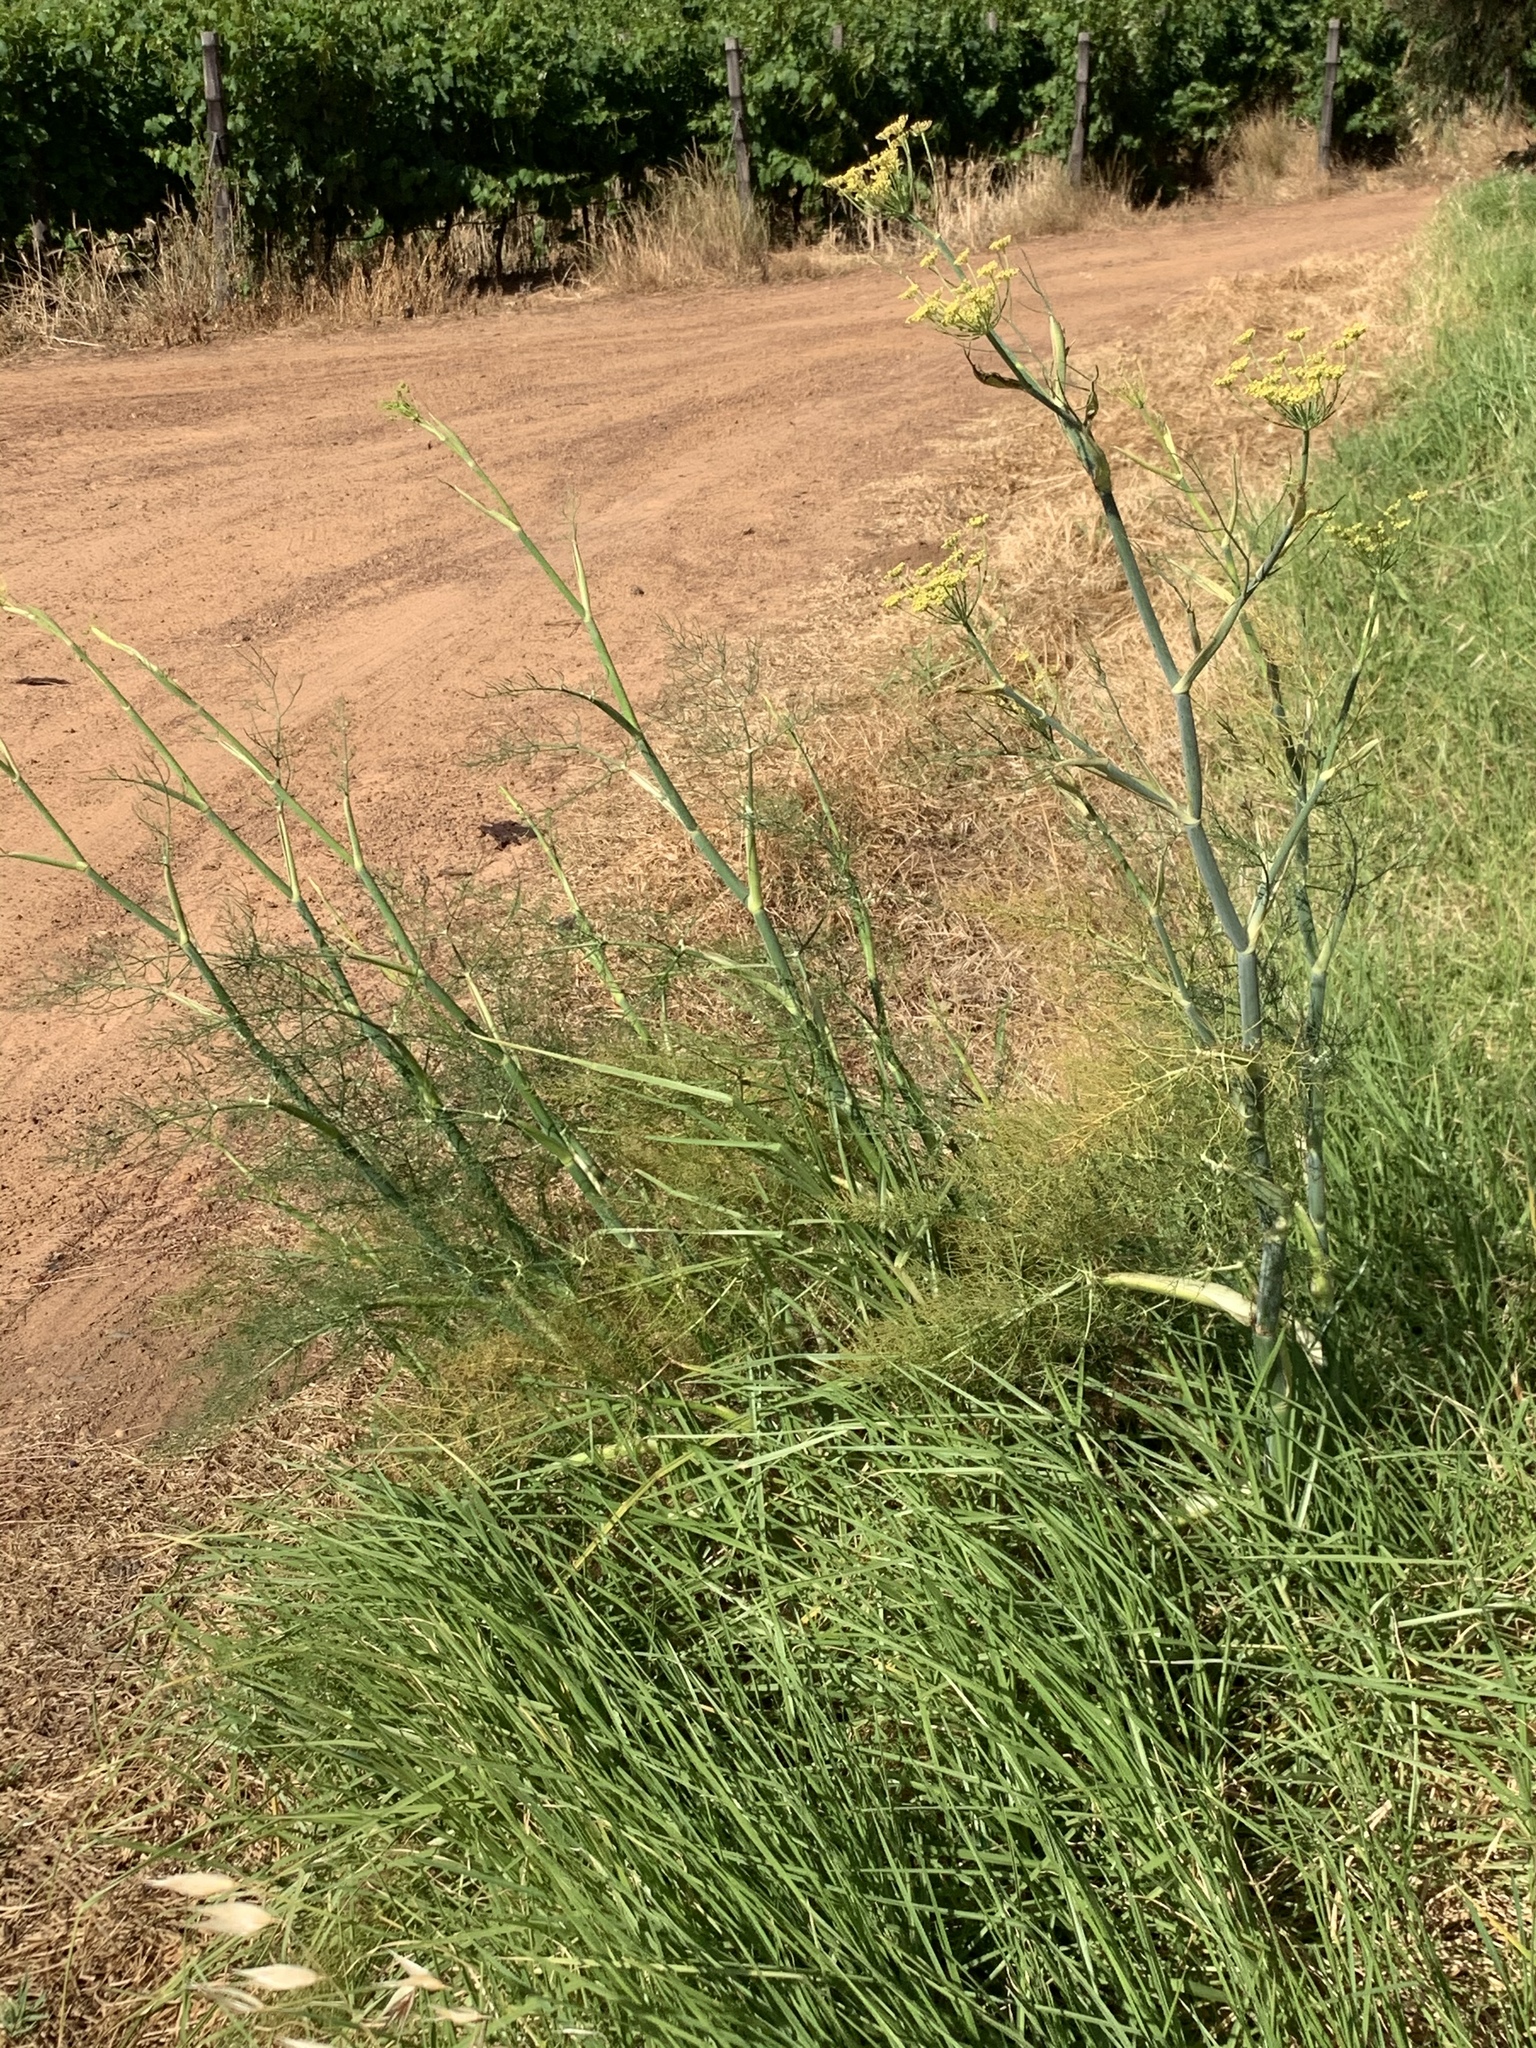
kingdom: Plantae
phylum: Tracheophyta
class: Magnoliopsida
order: Apiales
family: Apiaceae
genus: Foeniculum
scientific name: Foeniculum vulgare
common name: Fennel
